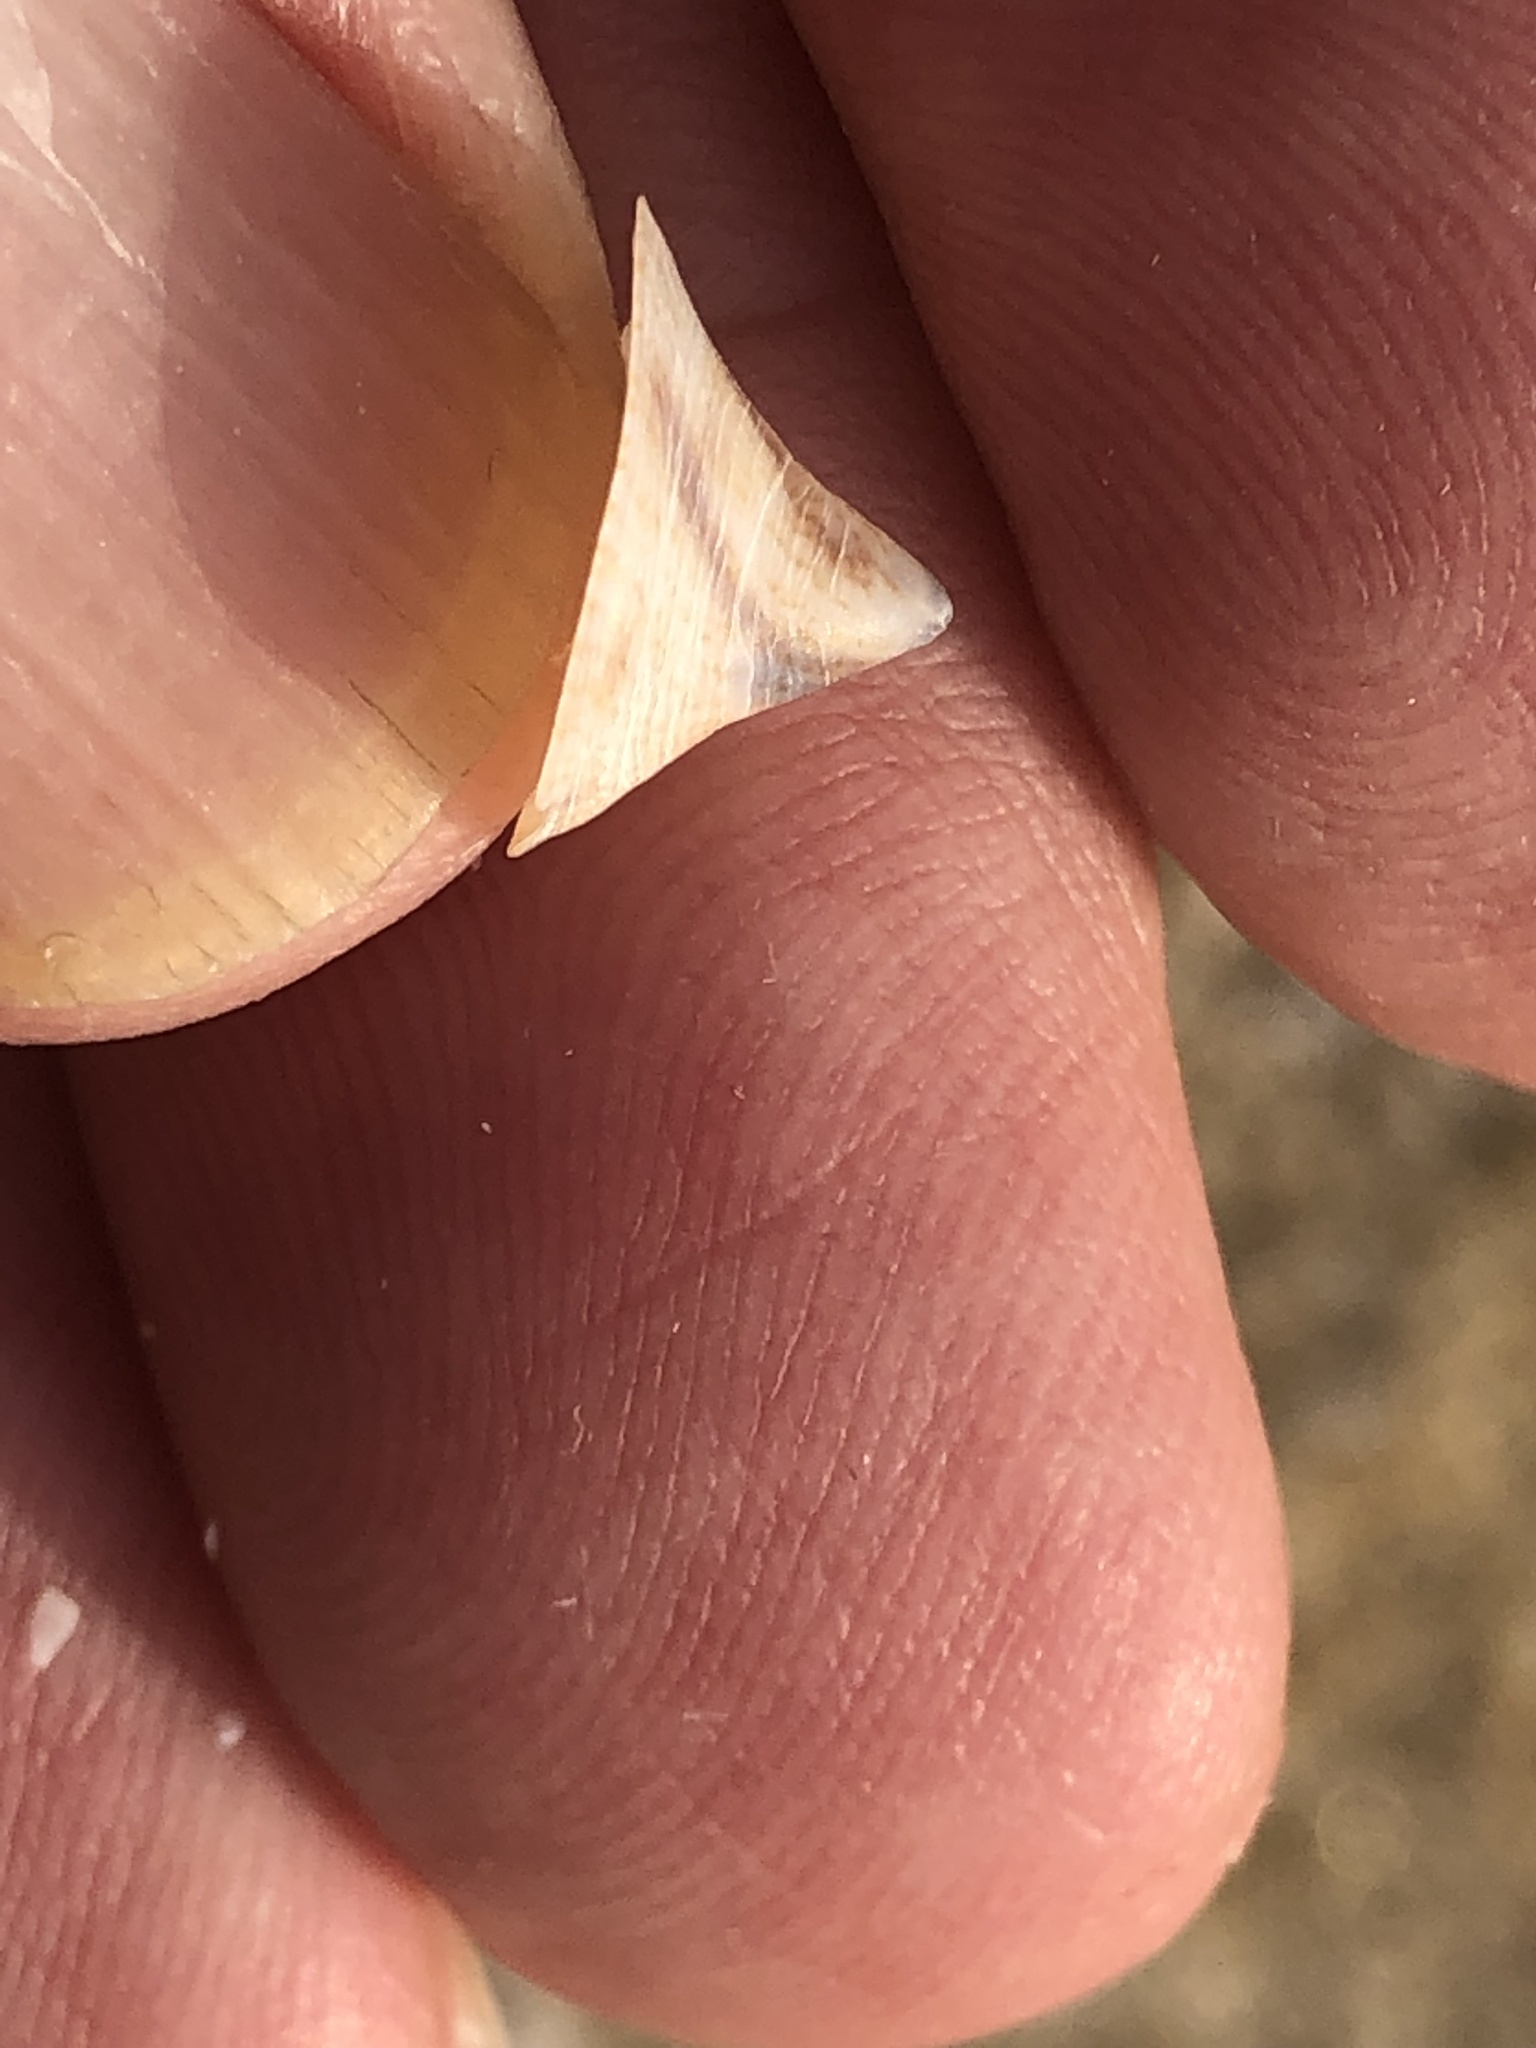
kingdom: Animalia
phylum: Mollusca
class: Gastropoda
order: Littorinimorpha
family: Calyptraeidae
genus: Desmaulus
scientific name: Desmaulus extinctorium
